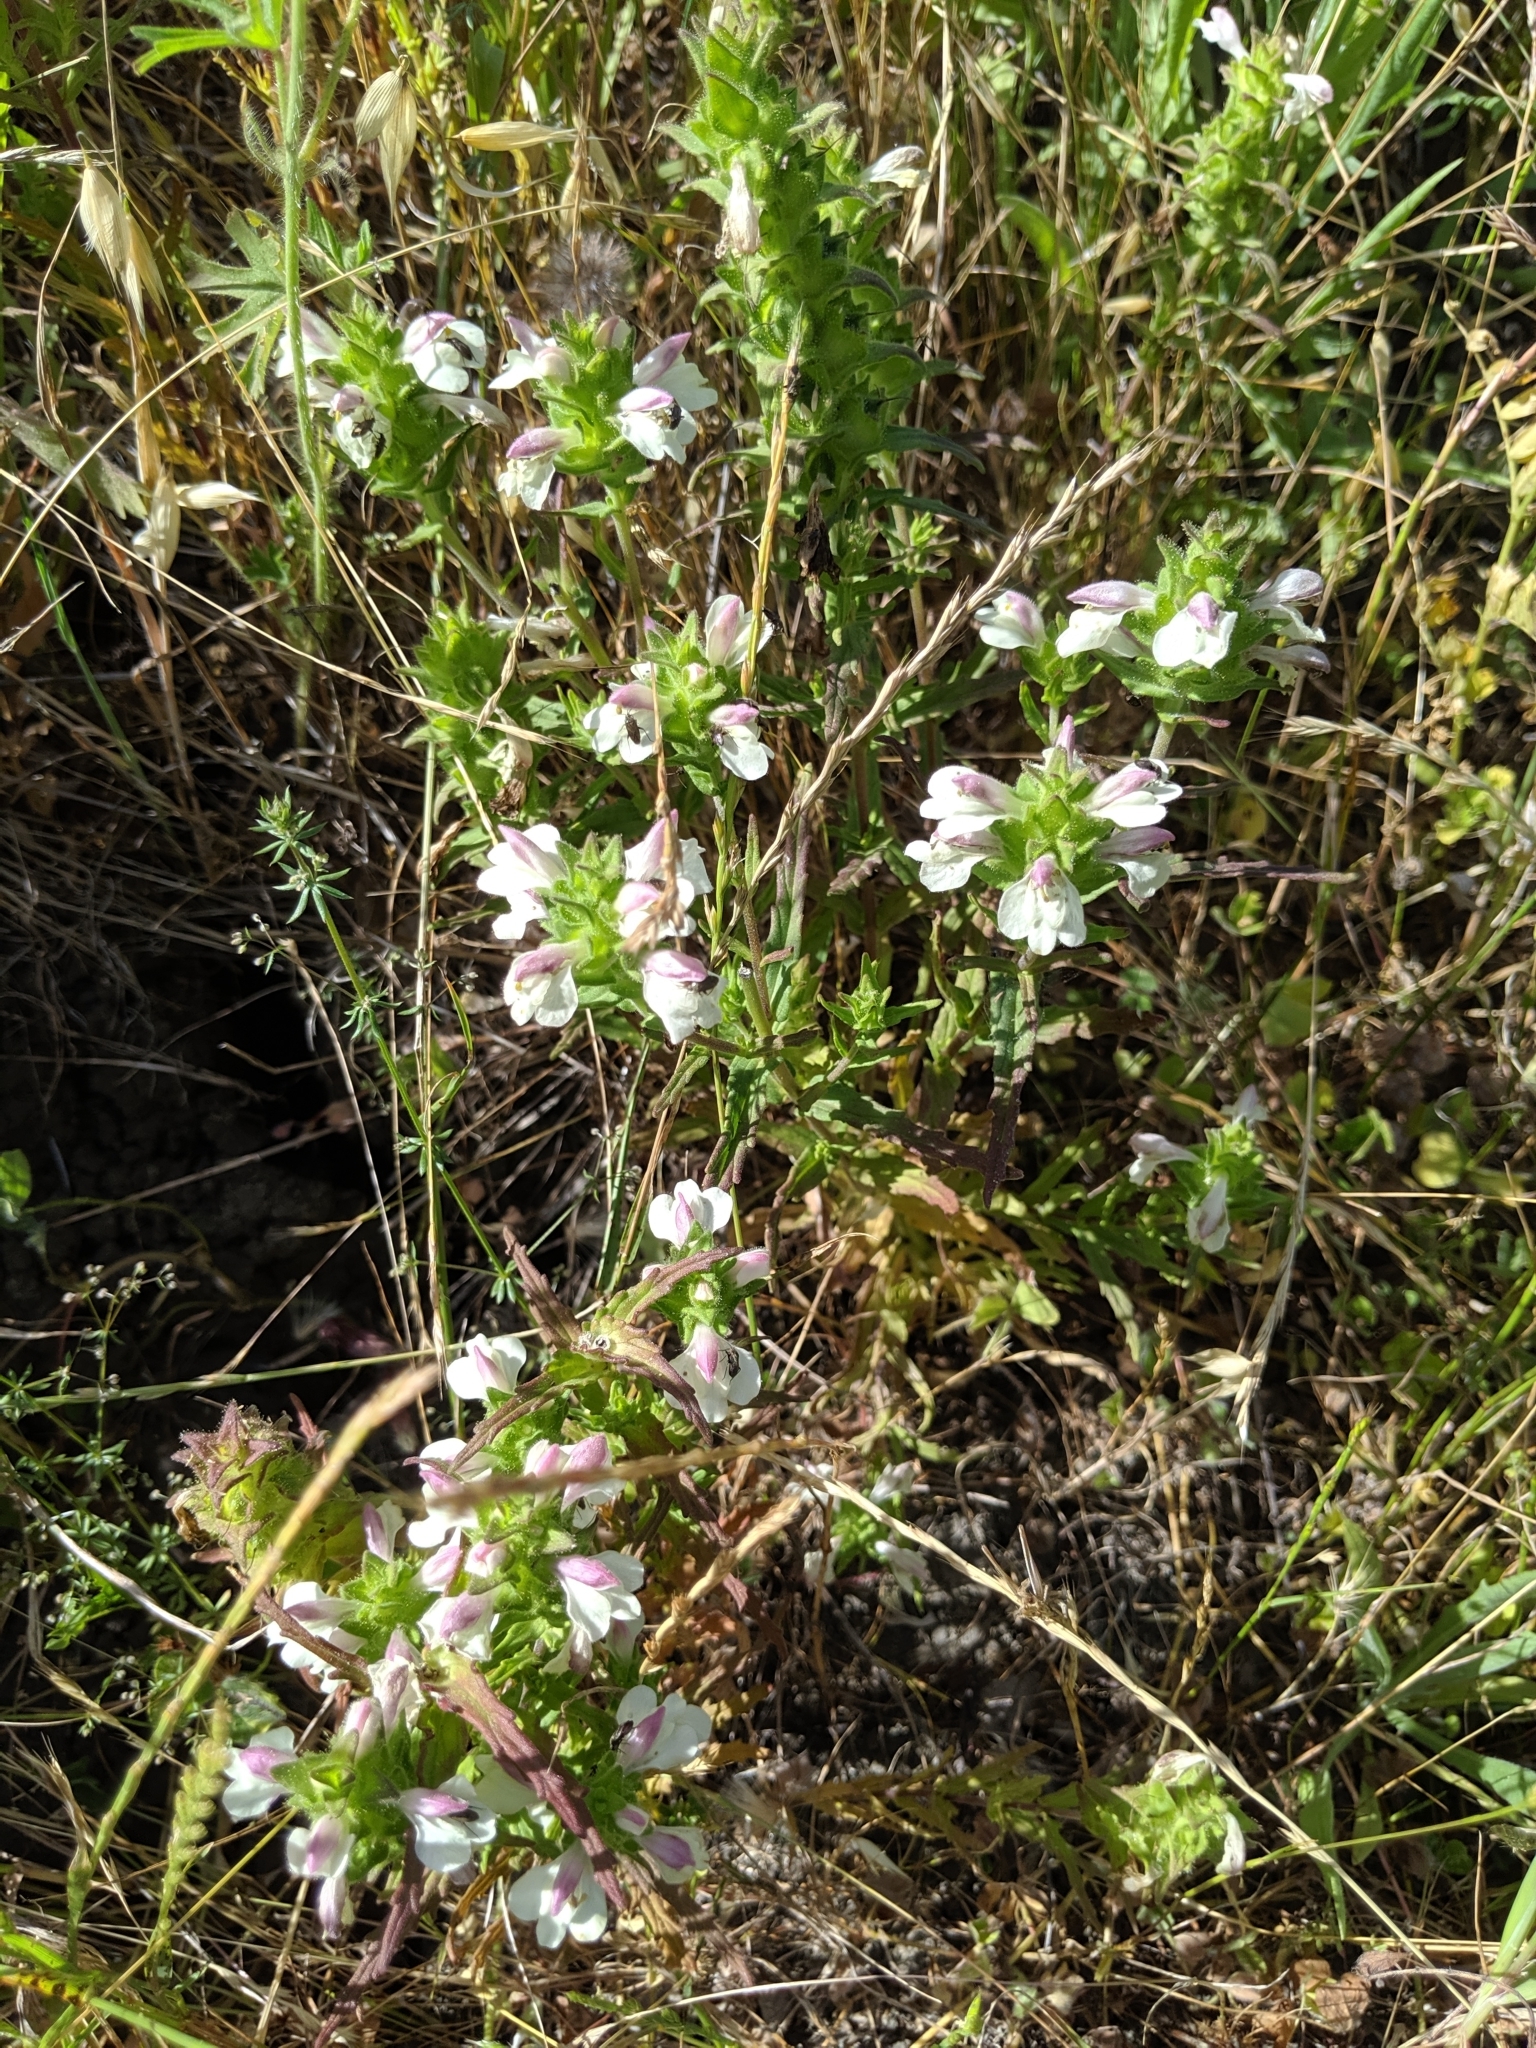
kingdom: Plantae
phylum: Tracheophyta
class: Magnoliopsida
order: Lamiales
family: Orobanchaceae
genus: Bellardia
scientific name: Bellardia trixago
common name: Mediterranean lineseed
